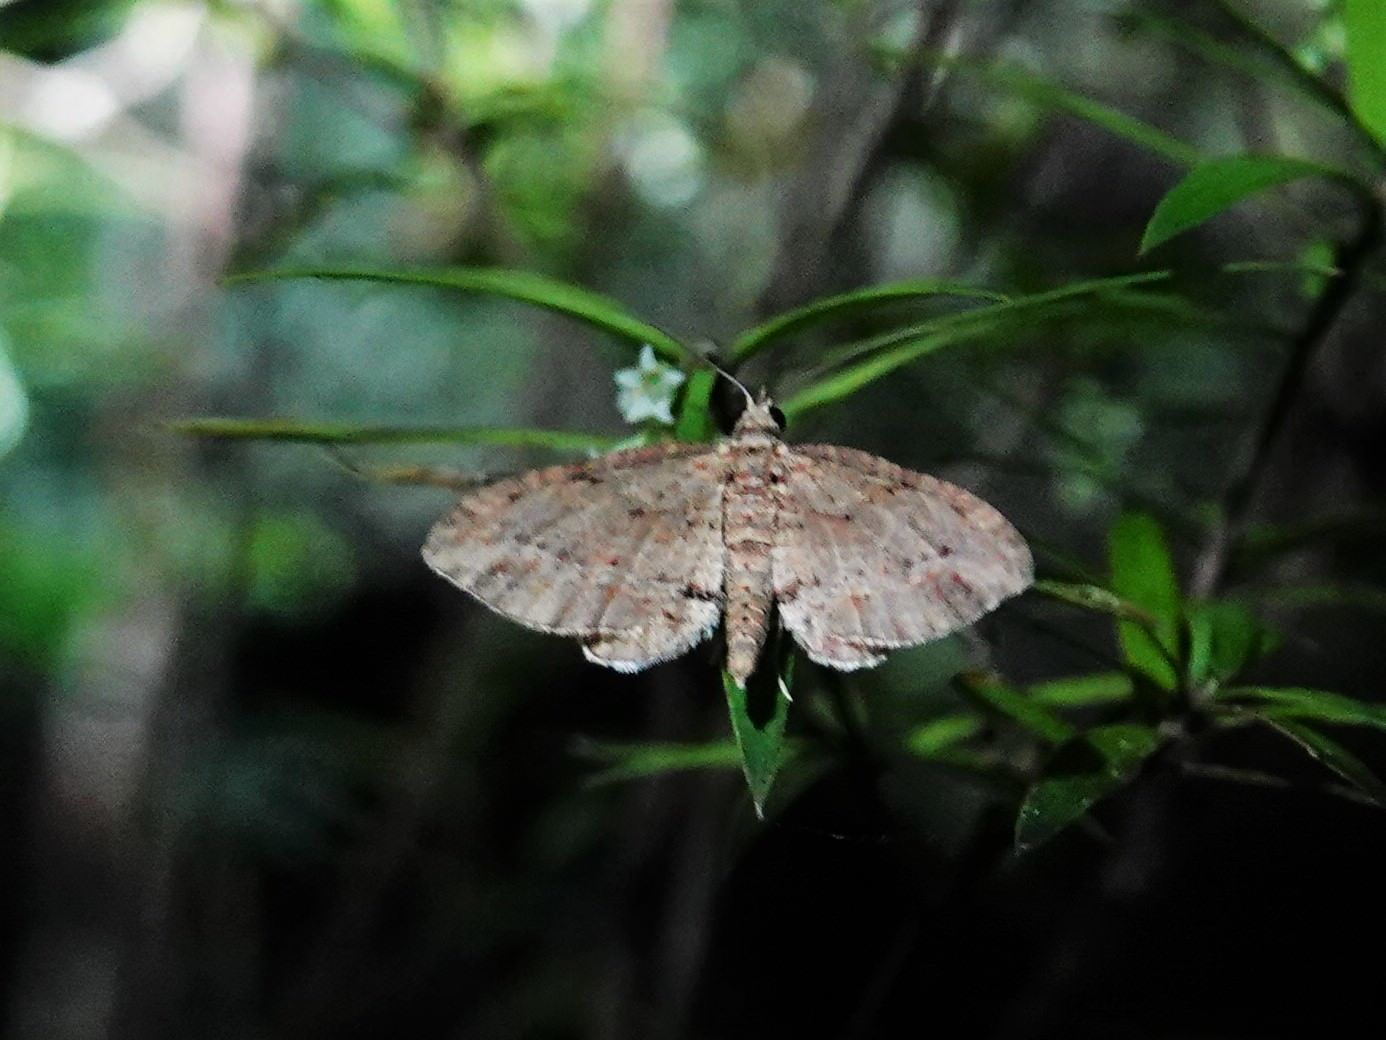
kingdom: Animalia
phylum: Arthropoda
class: Insecta
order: Lepidoptera
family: Geometridae
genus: Chloroclystis
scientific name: Chloroclystis filata
